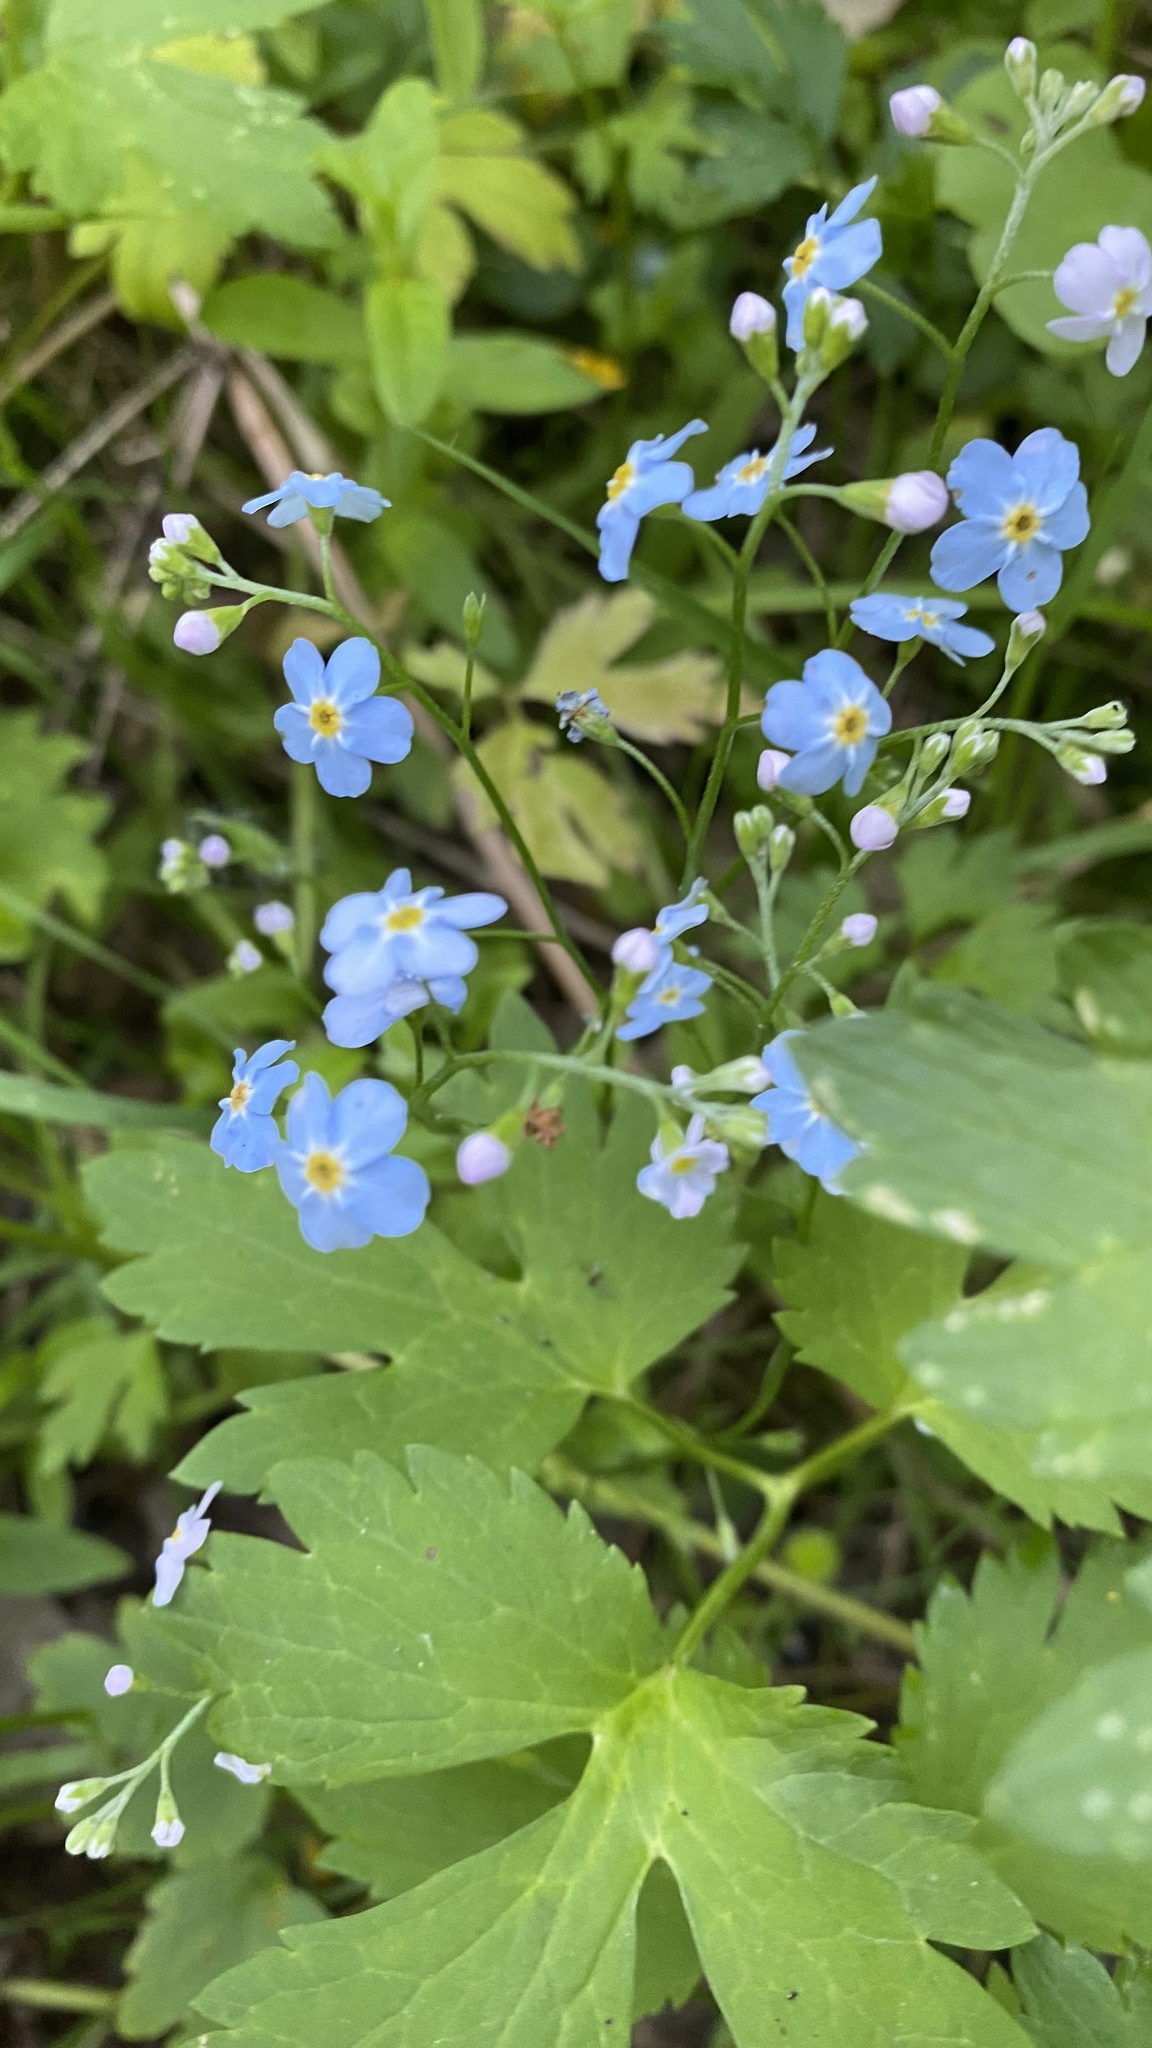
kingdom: Plantae
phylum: Tracheophyta
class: Magnoliopsida
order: Boraginales
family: Boraginaceae
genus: Myosotis
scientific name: Myosotis scorpioides
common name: Water forget-me-not
